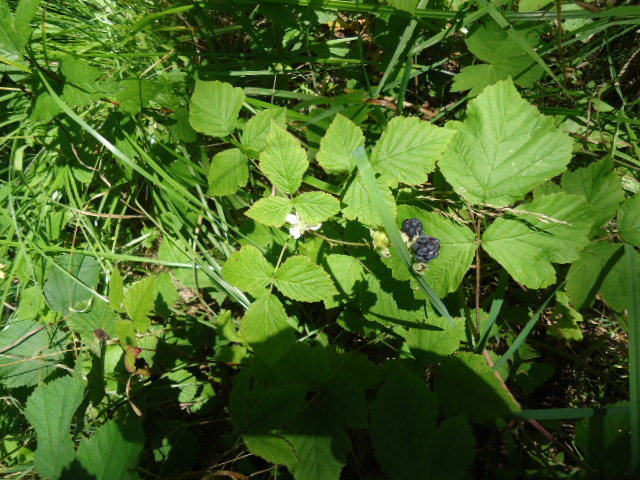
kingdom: Plantae
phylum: Tracheophyta
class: Magnoliopsida
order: Rosales
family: Rosaceae
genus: Rubus
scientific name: Rubus caesius
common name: Dewberry
